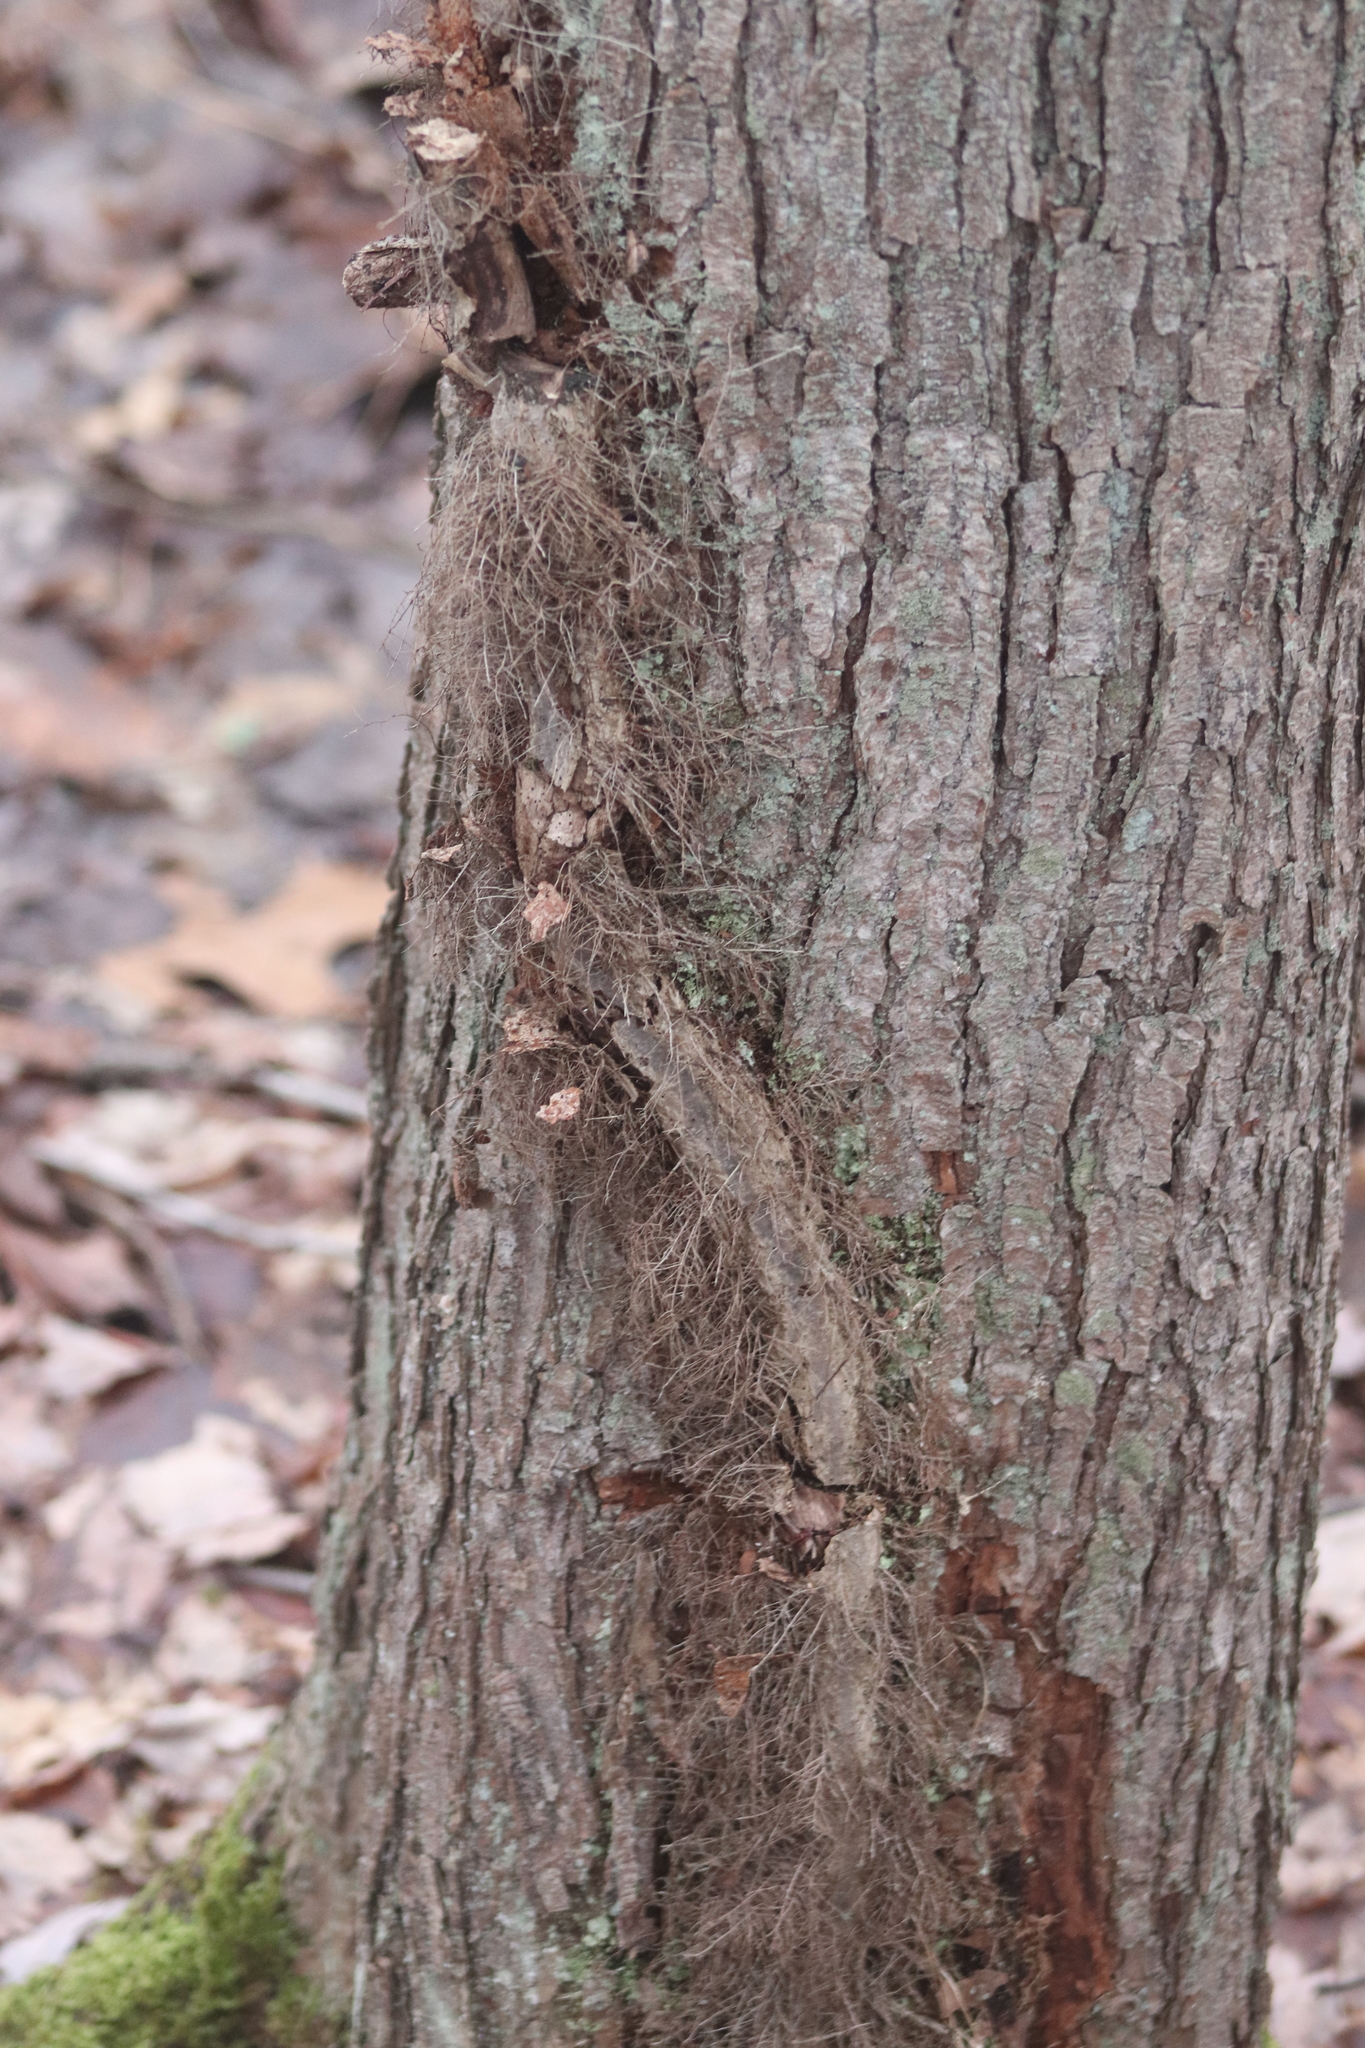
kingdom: Plantae
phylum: Tracheophyta
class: Magnoliopsida
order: Sapindales
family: Anacardiaceae
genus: Toxicodendron
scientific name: Toxicodendron radicans
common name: Poison ivy
